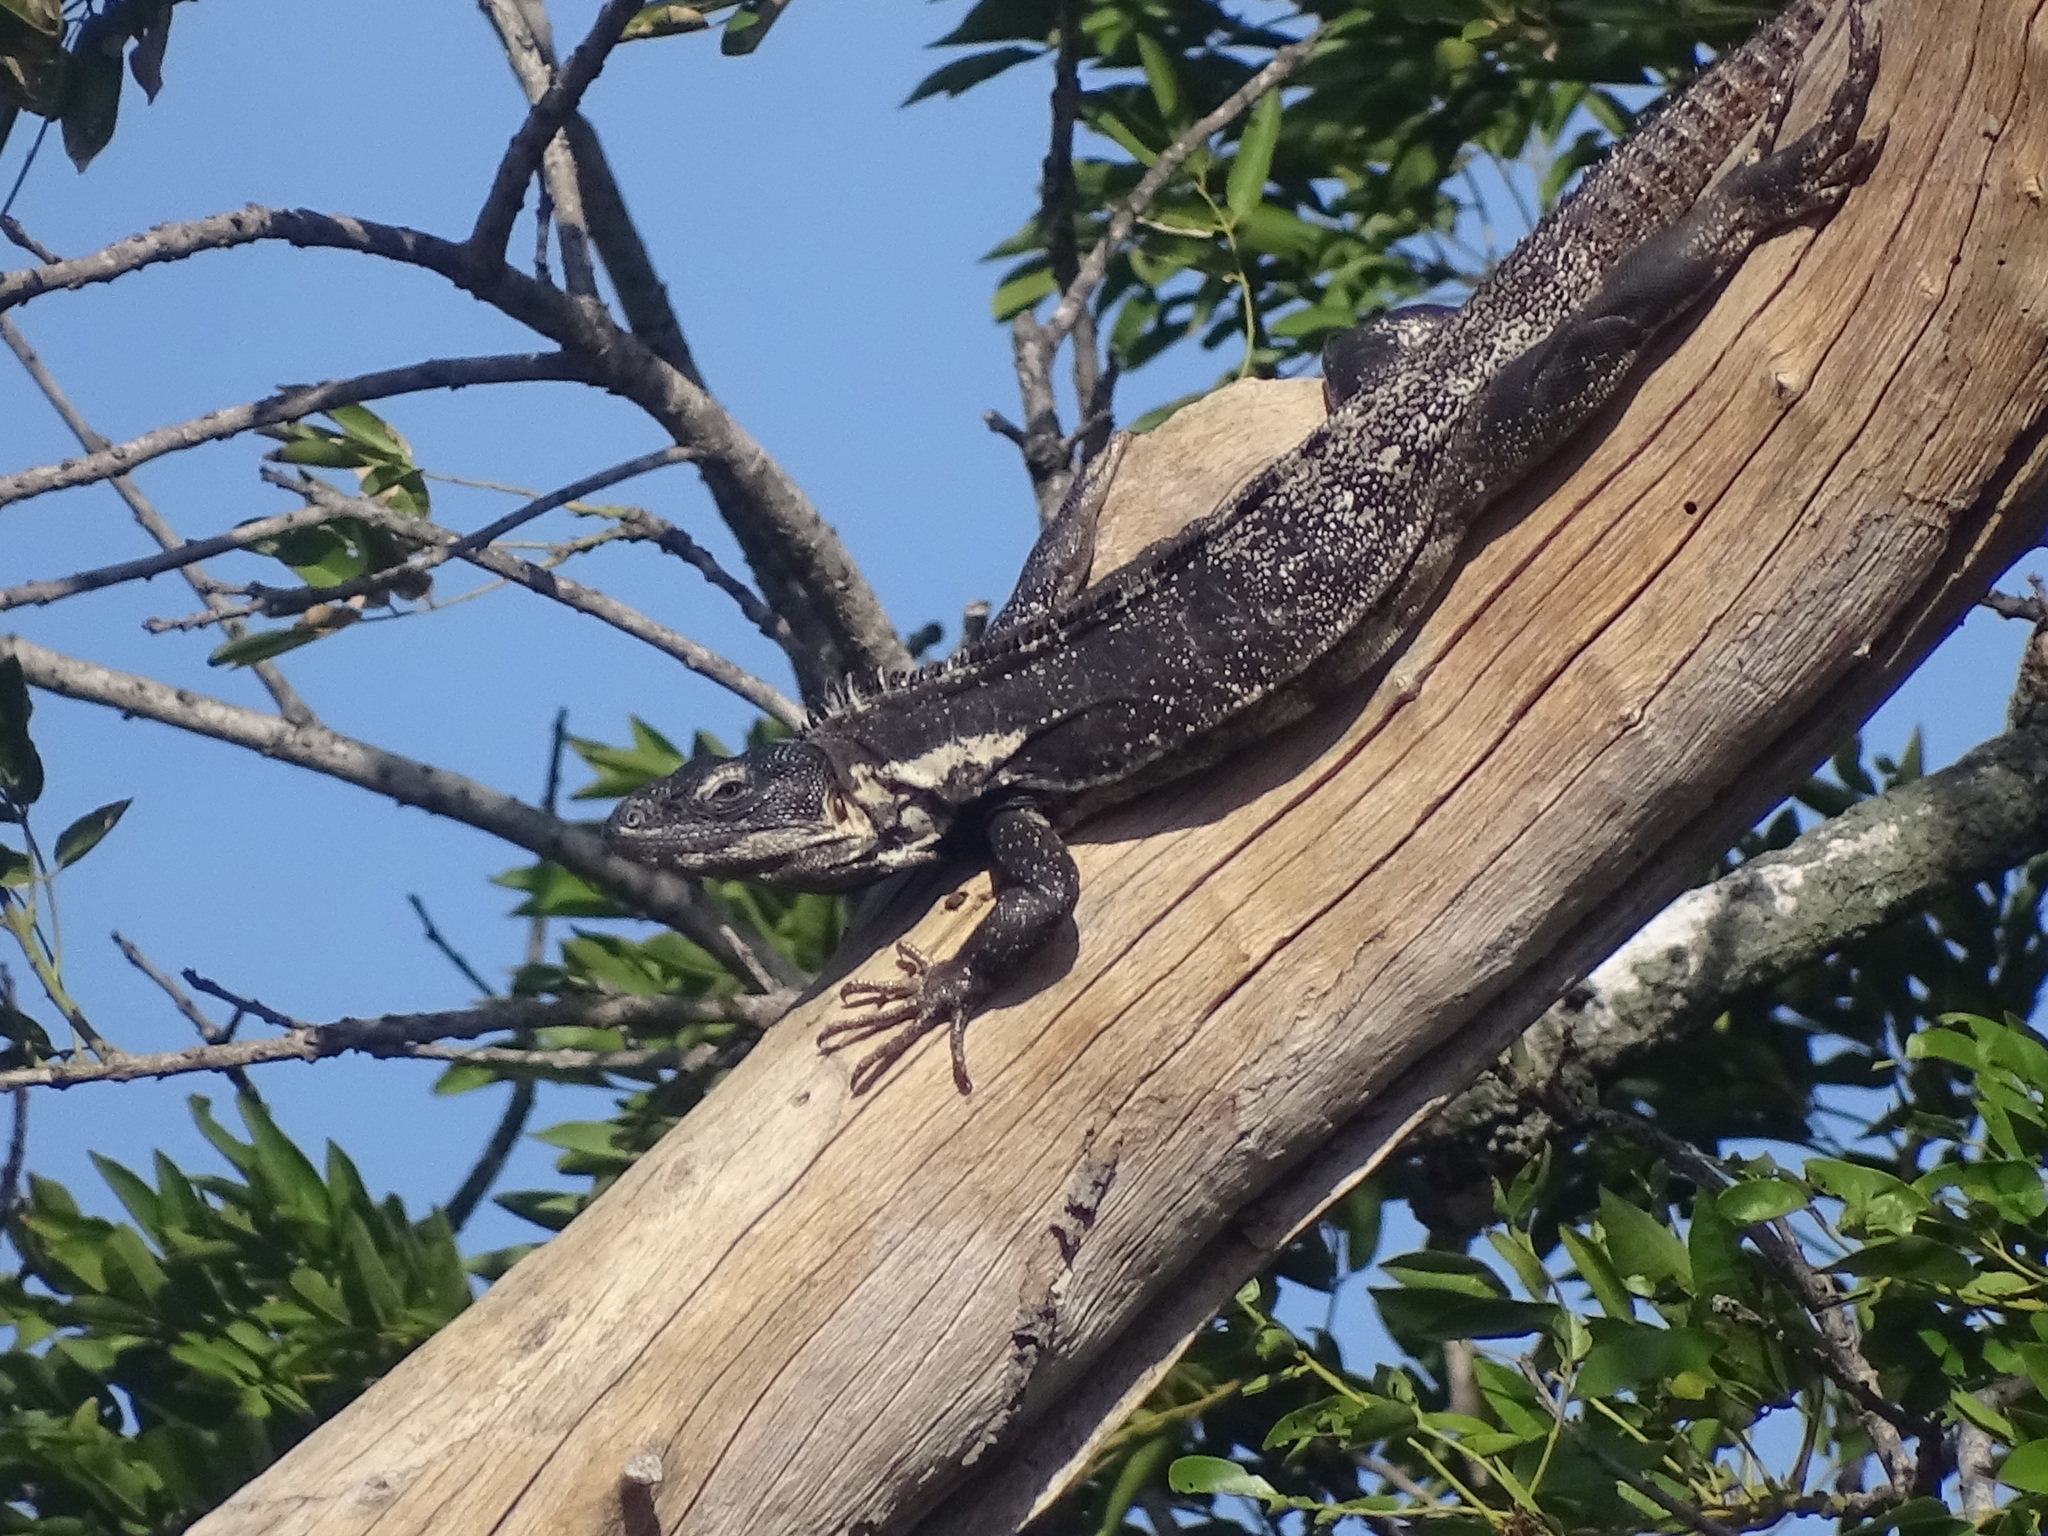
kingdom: Animalia
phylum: Chordata
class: Squamata
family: Iguanidae
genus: Ctenosaura
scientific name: Ctenosaura pectinata
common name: Guerreran spiny-tailed iguana
